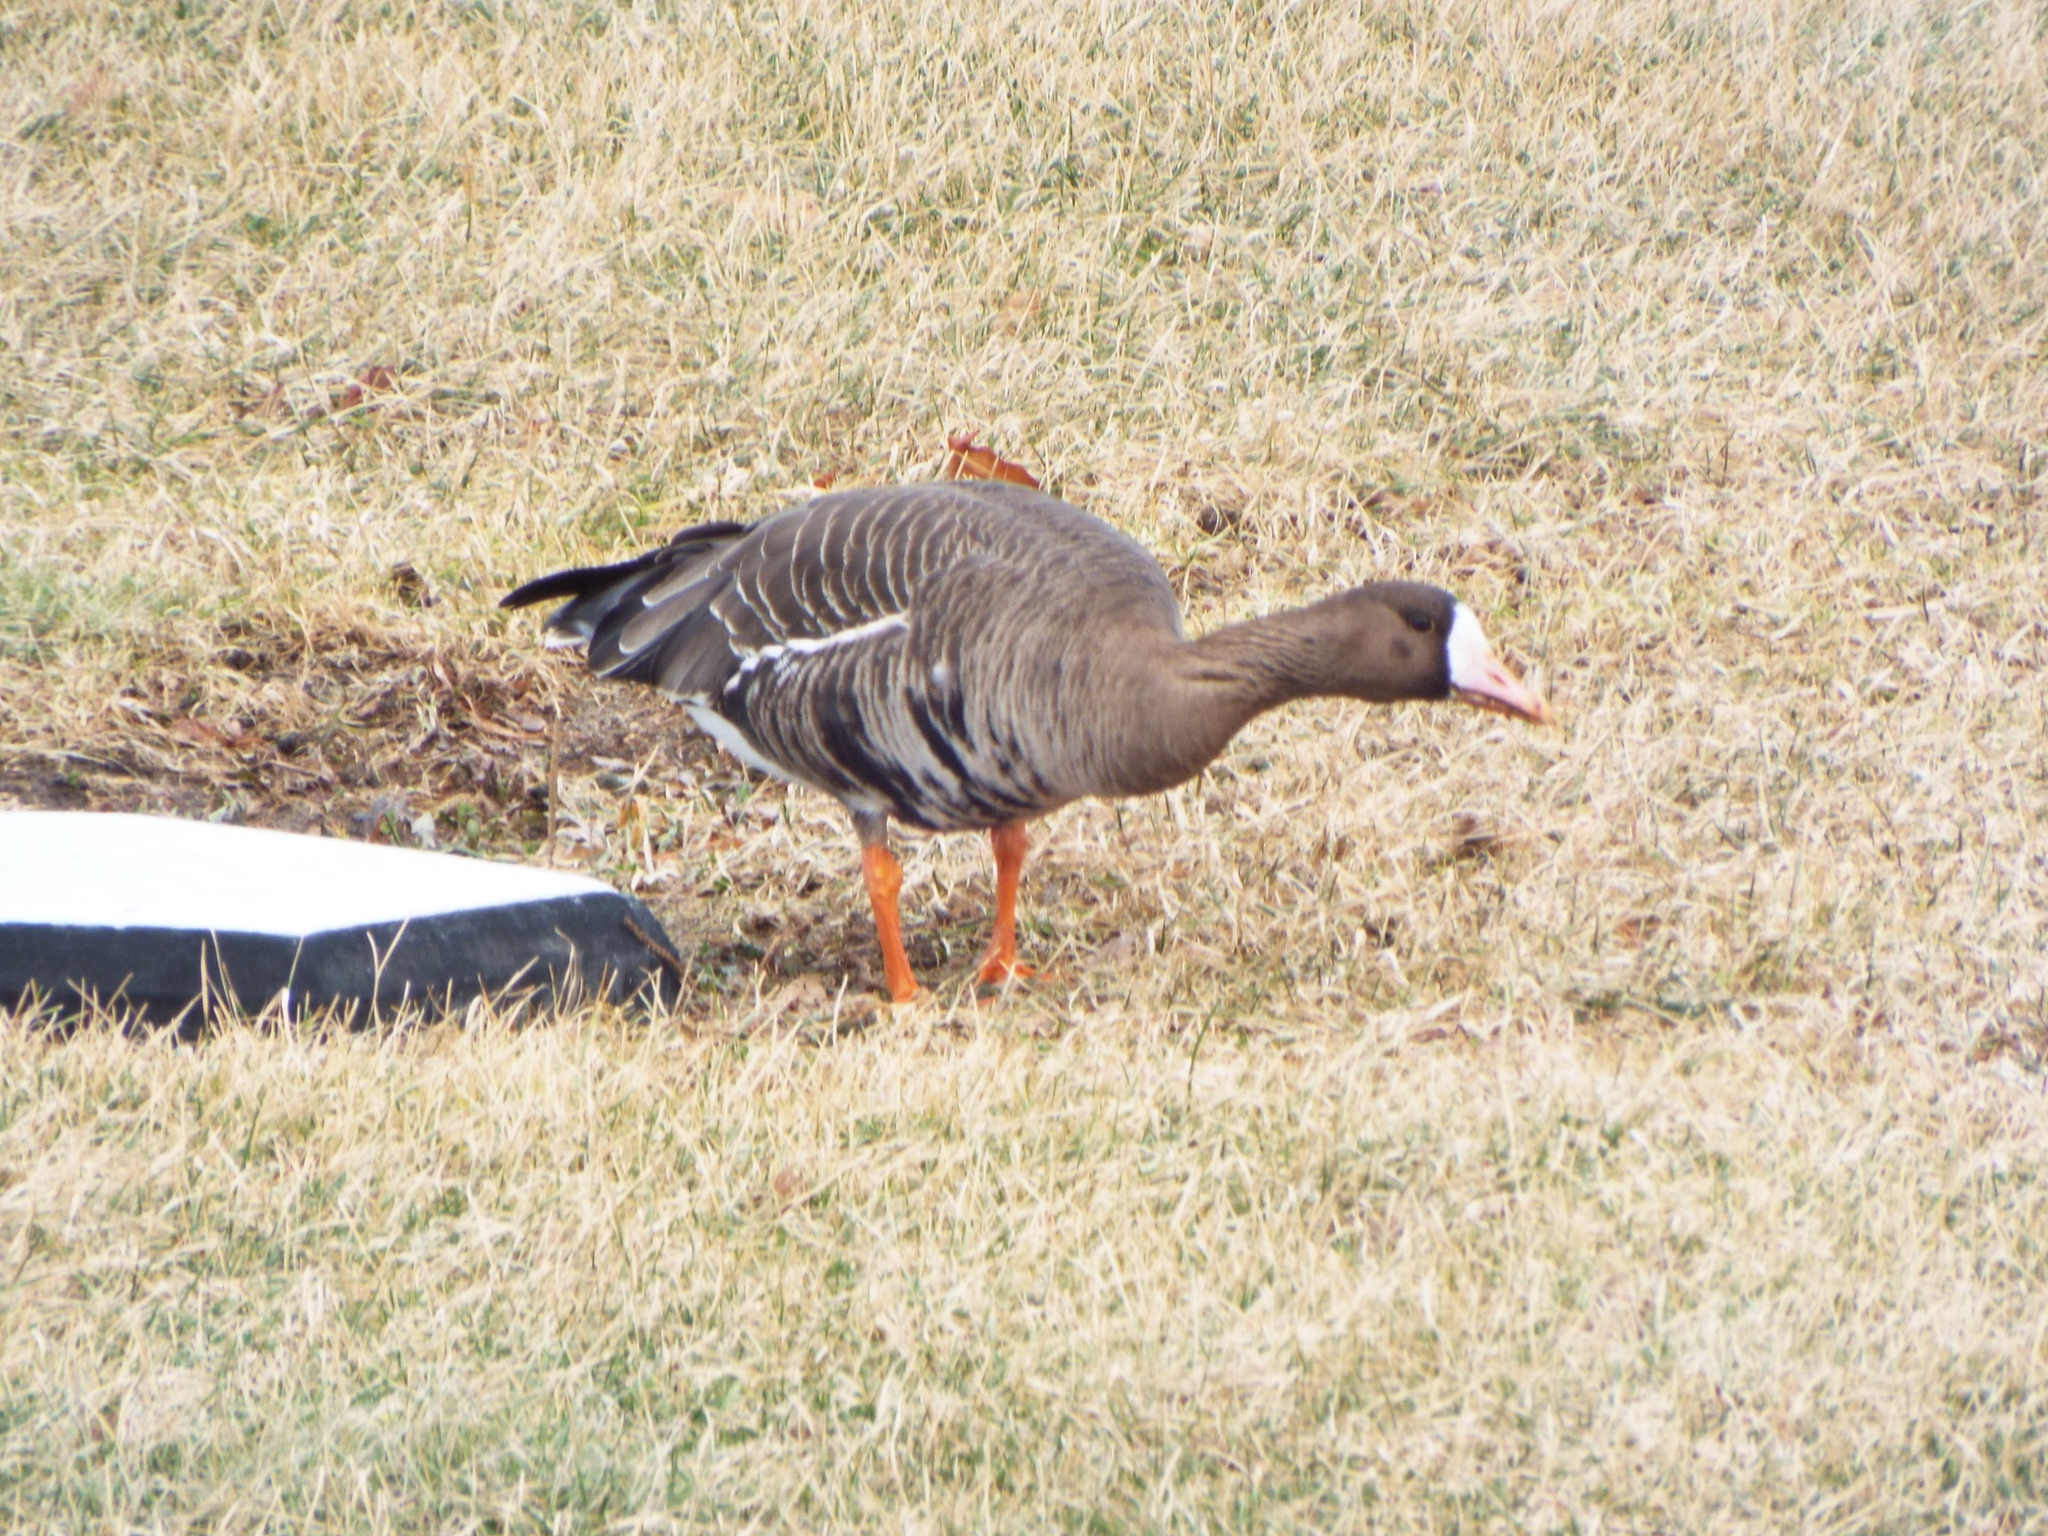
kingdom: Animalia
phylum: Chordata
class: Aves
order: Anseriformes
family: Anatidae
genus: Anser
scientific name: Anser albifrons
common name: Greater white-fronted goose
